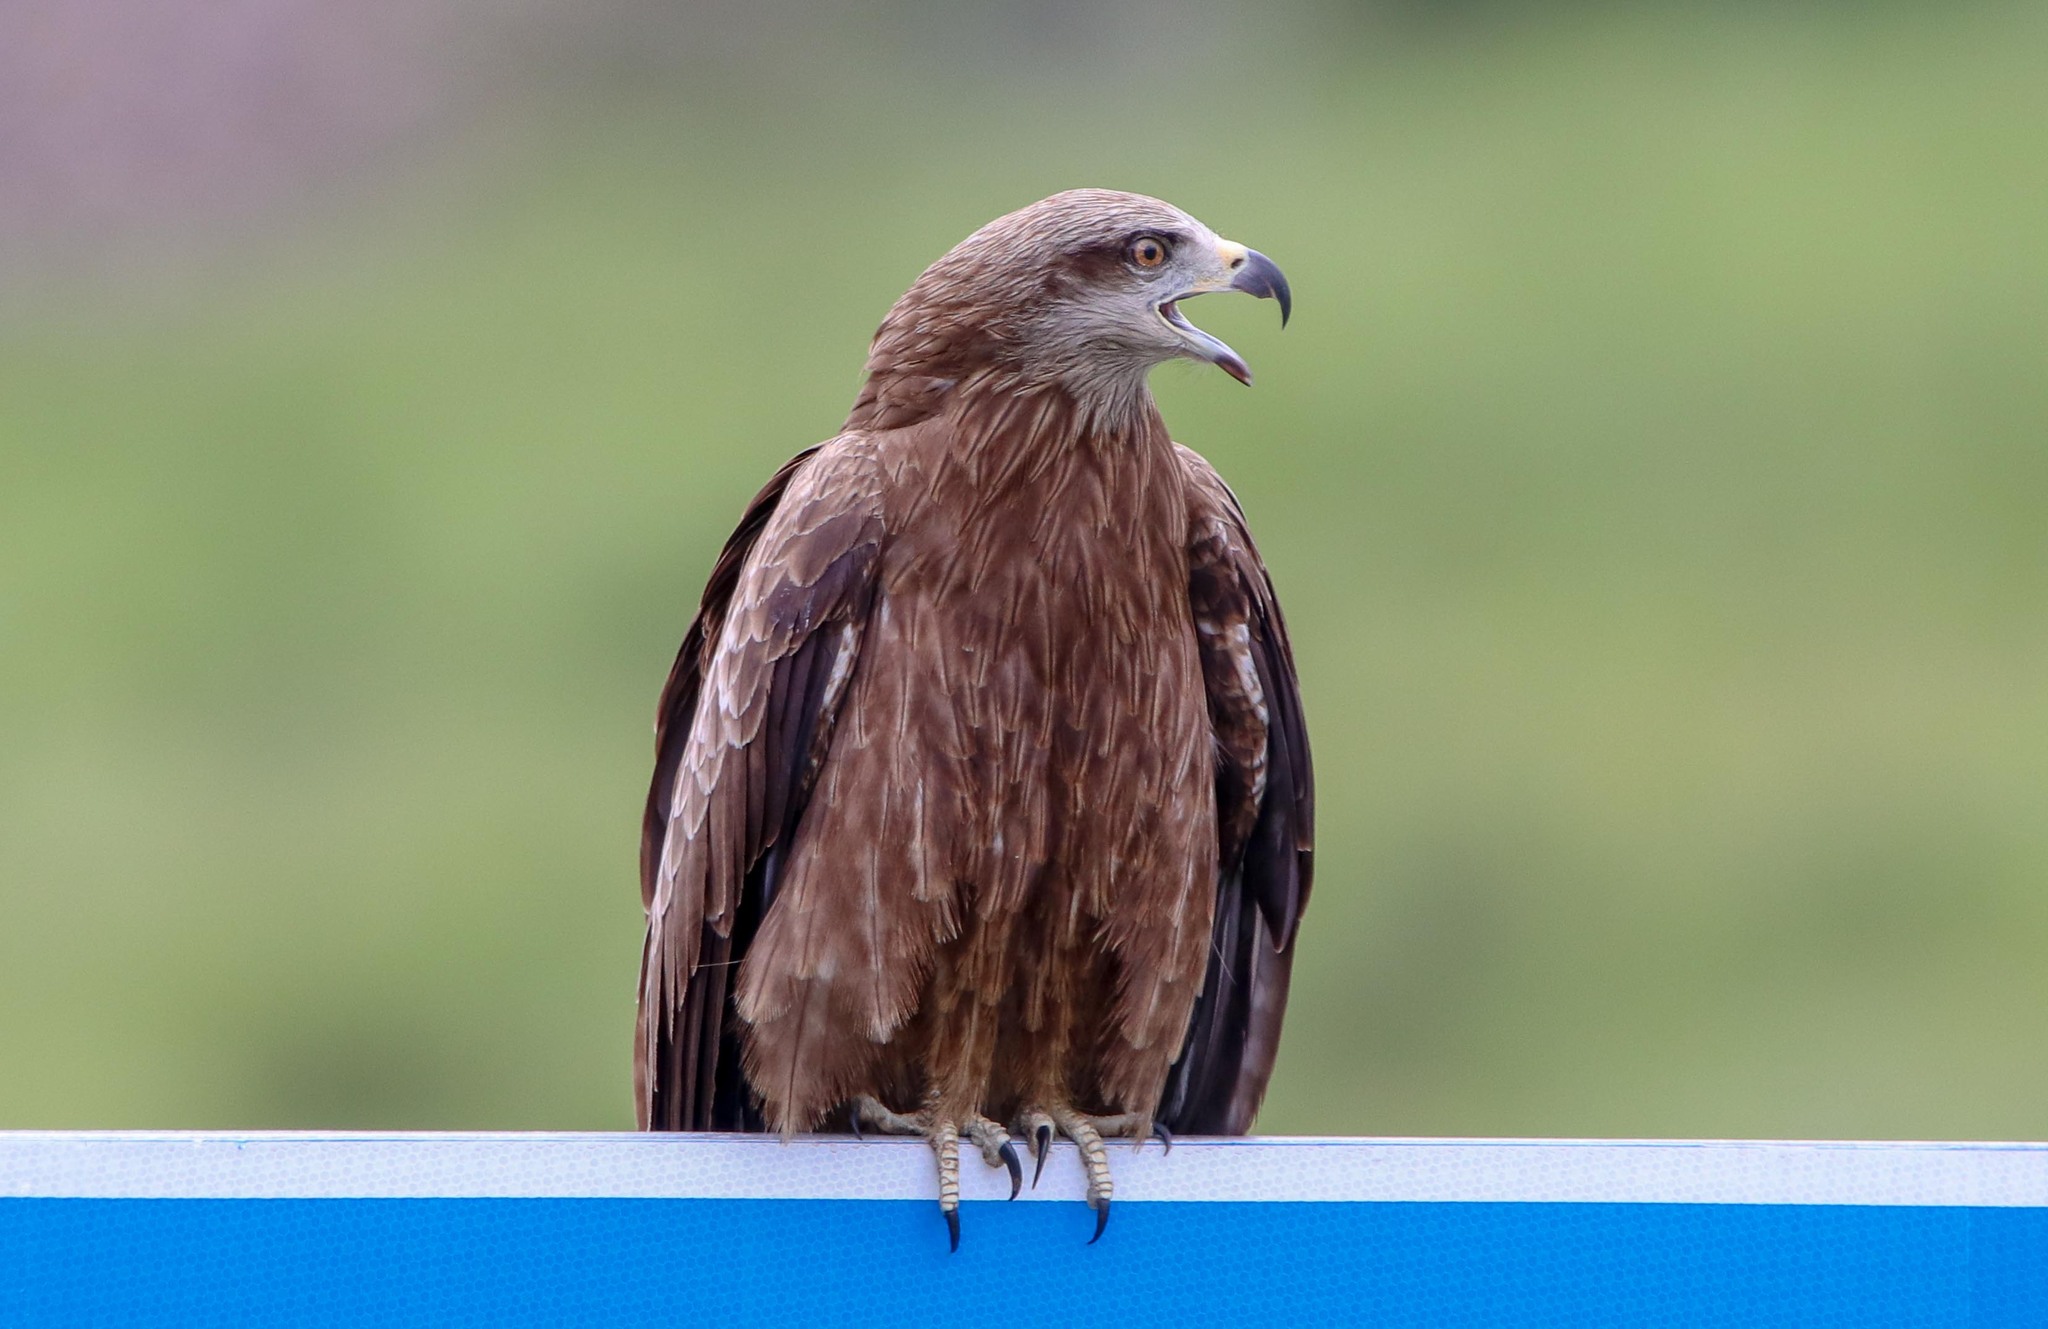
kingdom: Animalia
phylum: Chordata
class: Aves
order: Accipitriformes
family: Accipitridae
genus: Milvus
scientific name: Milvus migrans
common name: Black kite
